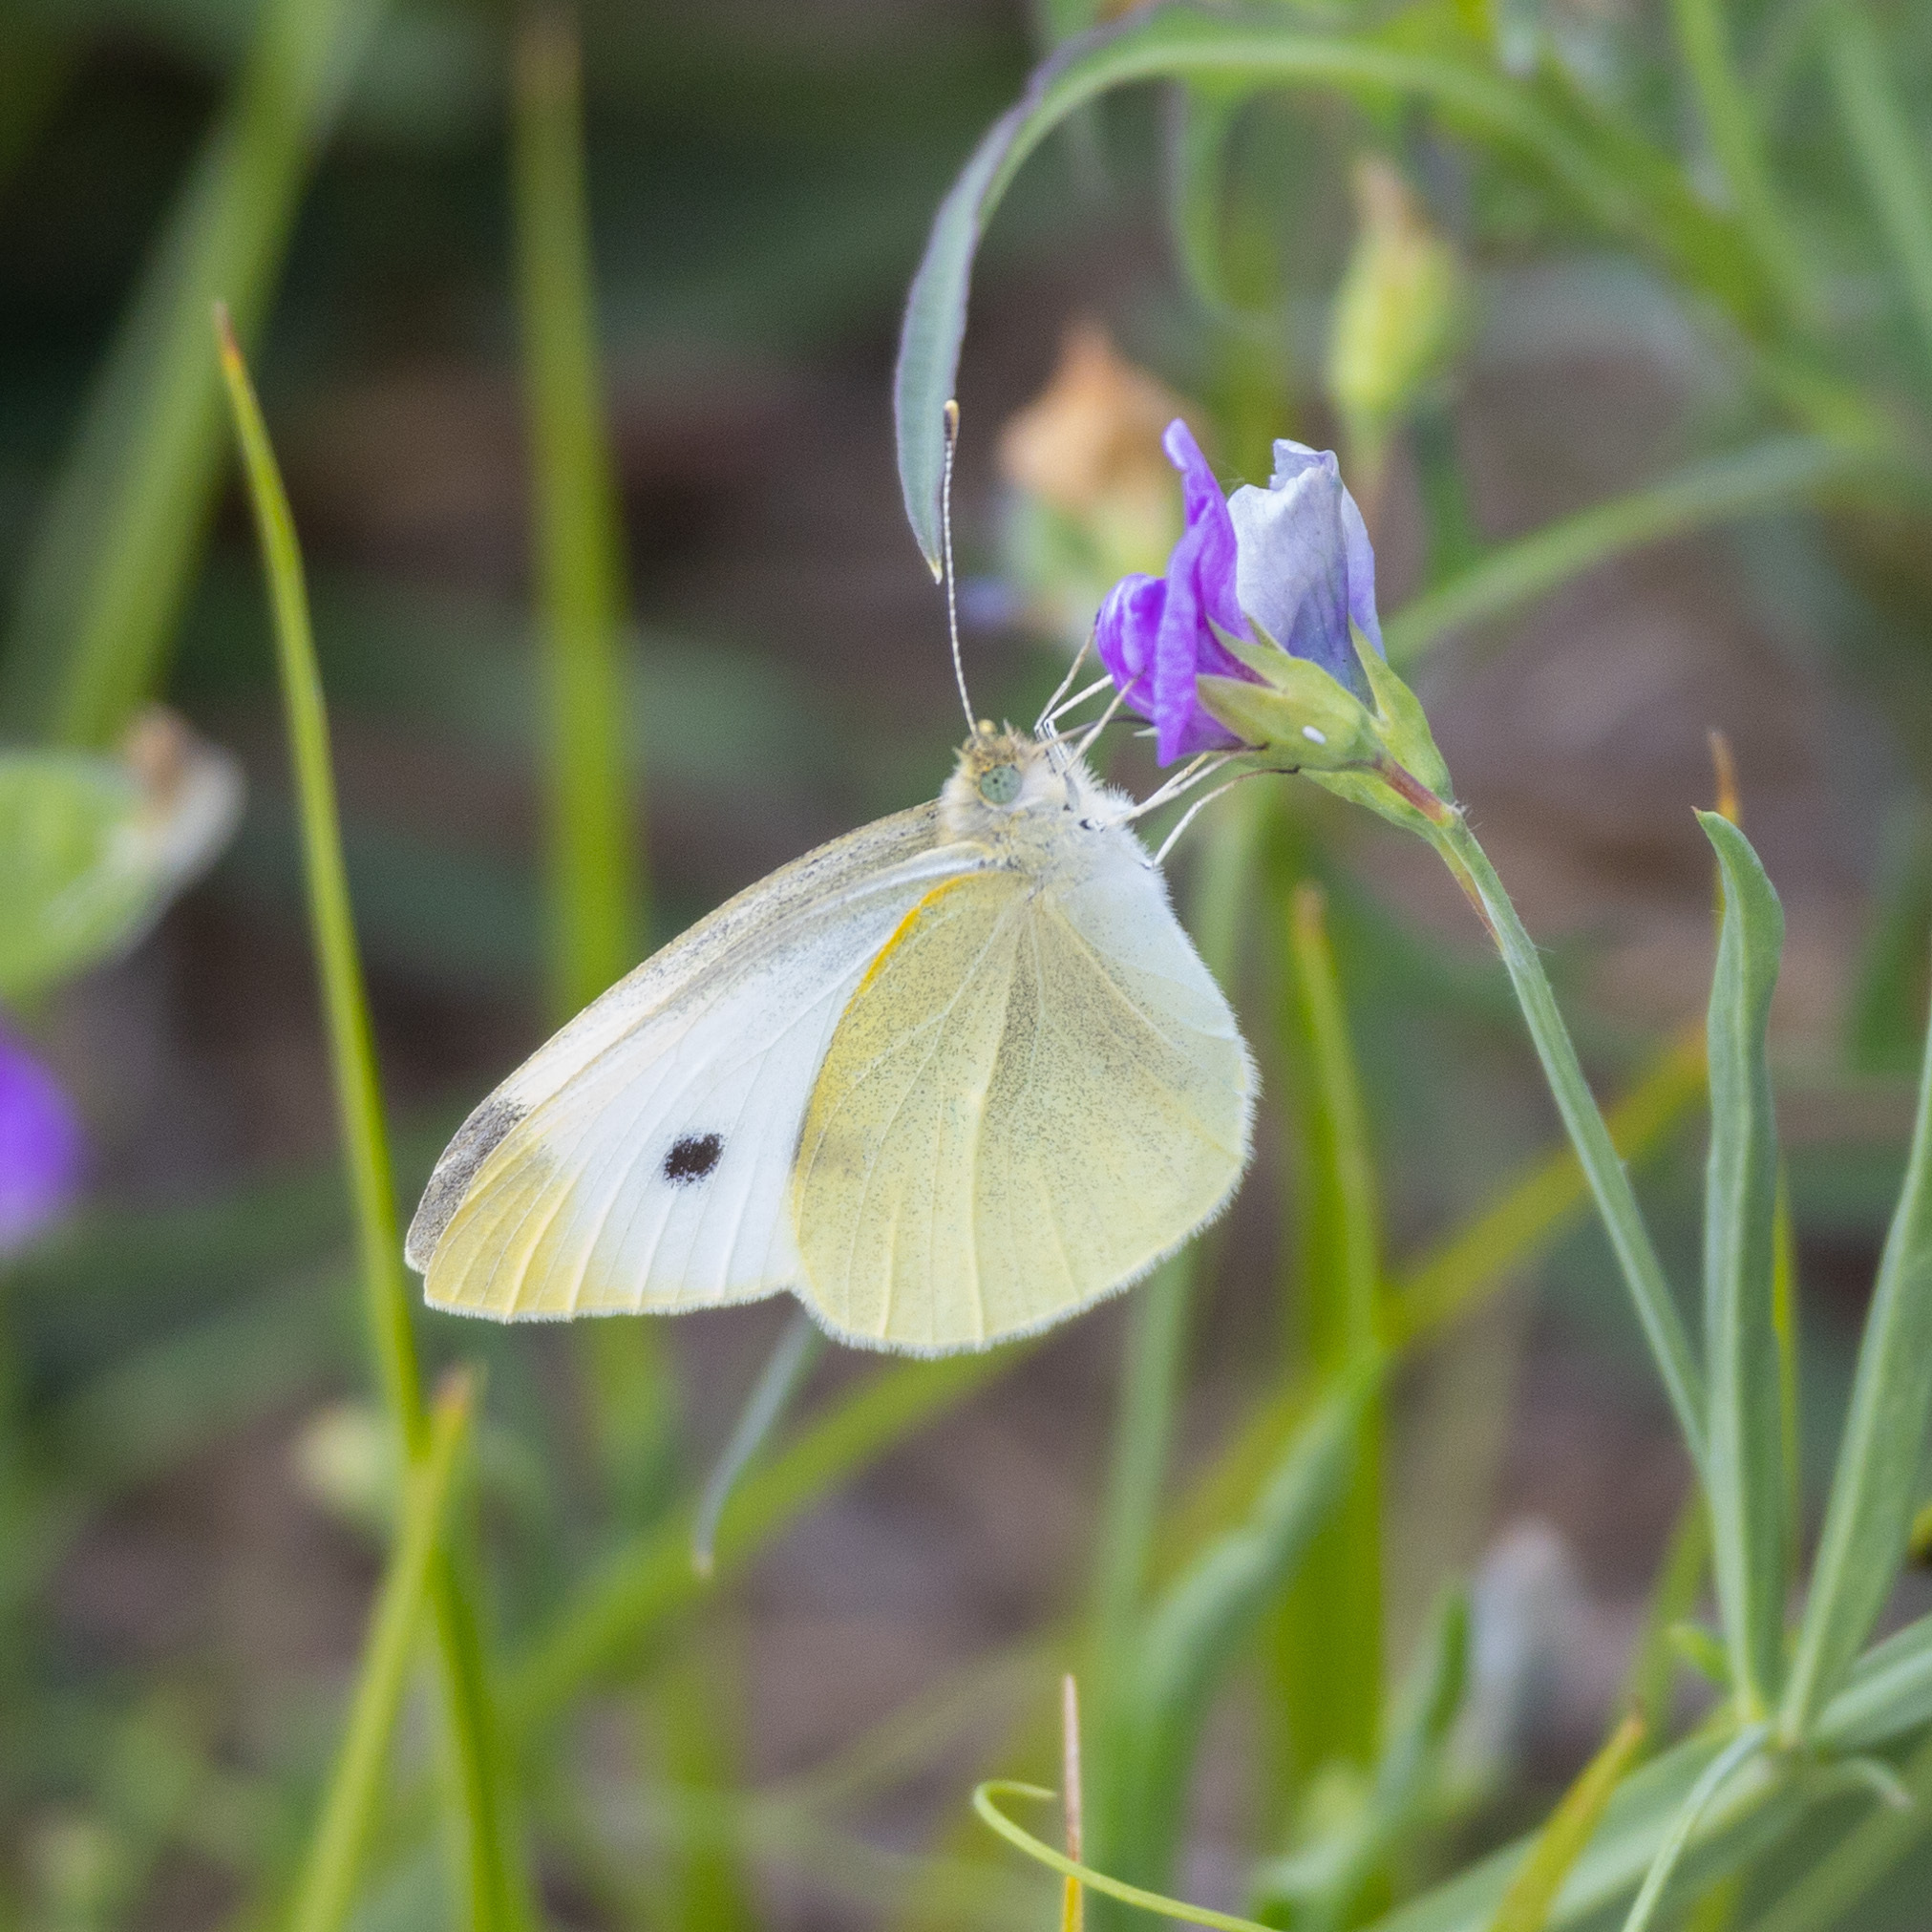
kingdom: Animalia
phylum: Arthropoda
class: Insecta
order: Lepidoptera
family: Pieridae
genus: Pieris
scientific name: Pieris rapae
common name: Small white
